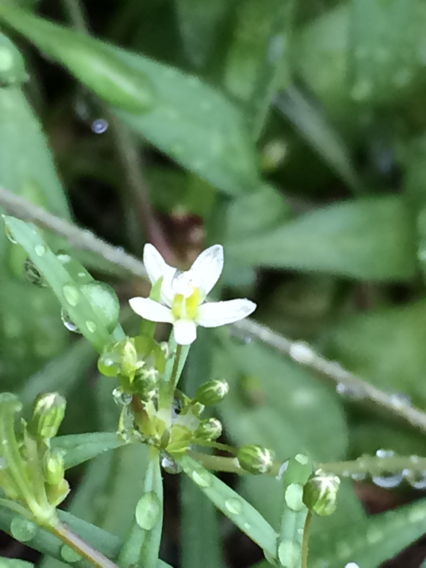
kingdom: Plantae
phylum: Tracheophyta
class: Magnoliopsida
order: Caryophyllales
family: Molluginaceae
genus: Mollugo
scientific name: Mollugo verticillata
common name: Green carpetweed
